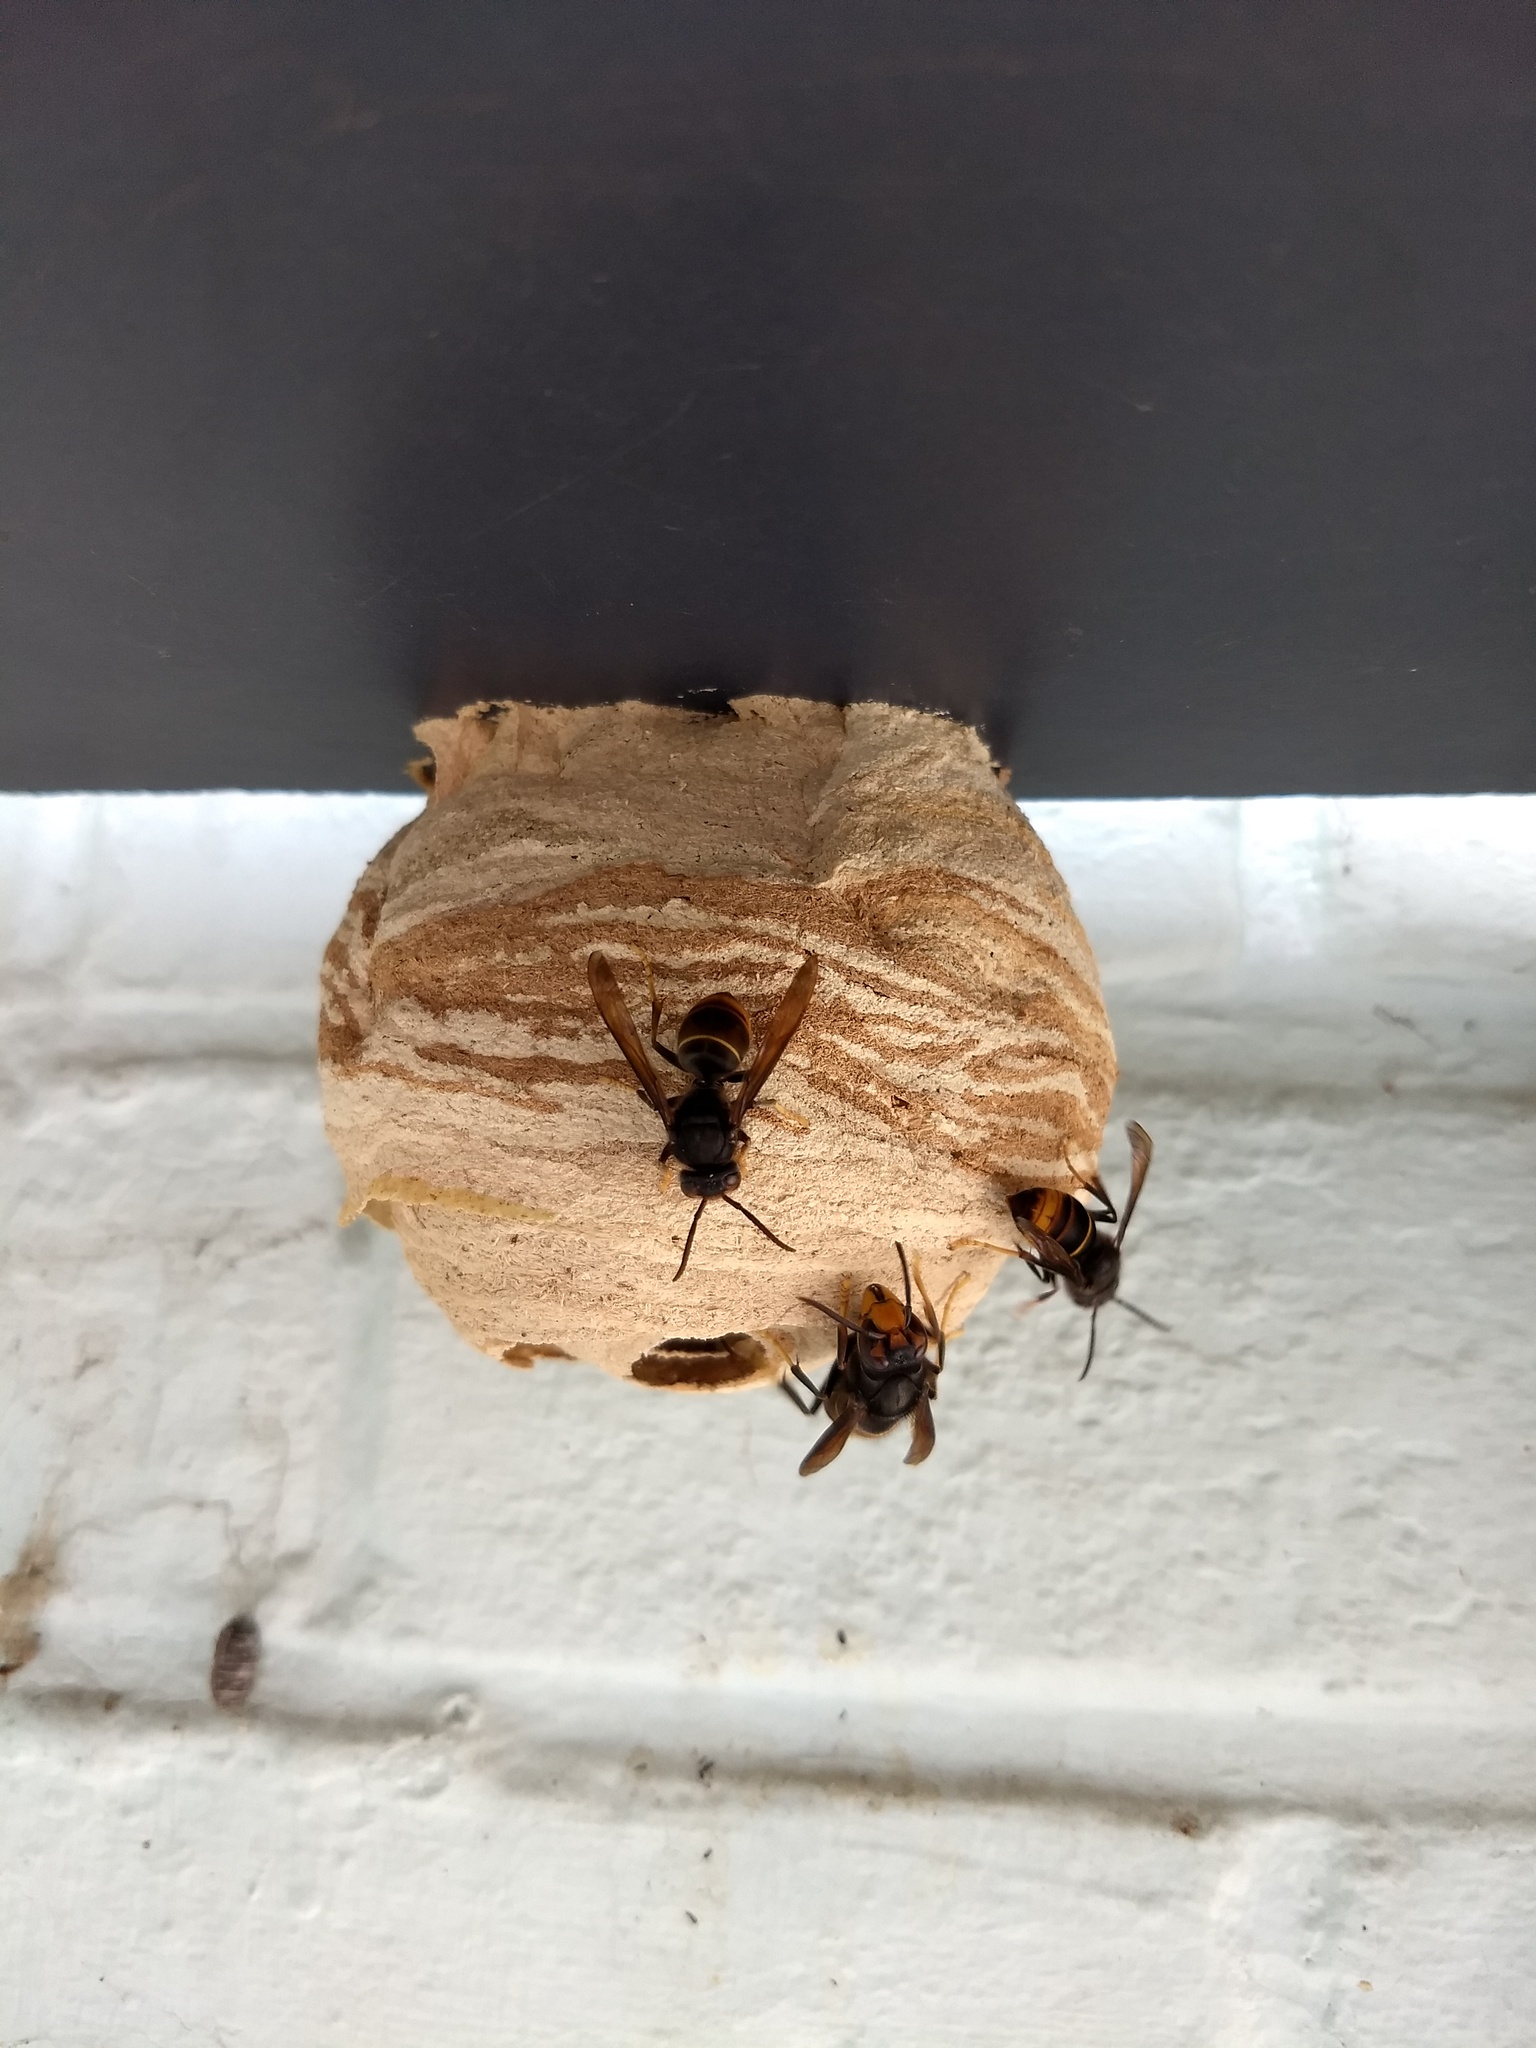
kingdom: Animalia
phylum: Arthropoda
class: Insecta
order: Hymenoptera
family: Vespidae
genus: Vespa
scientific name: Vespa velutina
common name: Asian hornet
